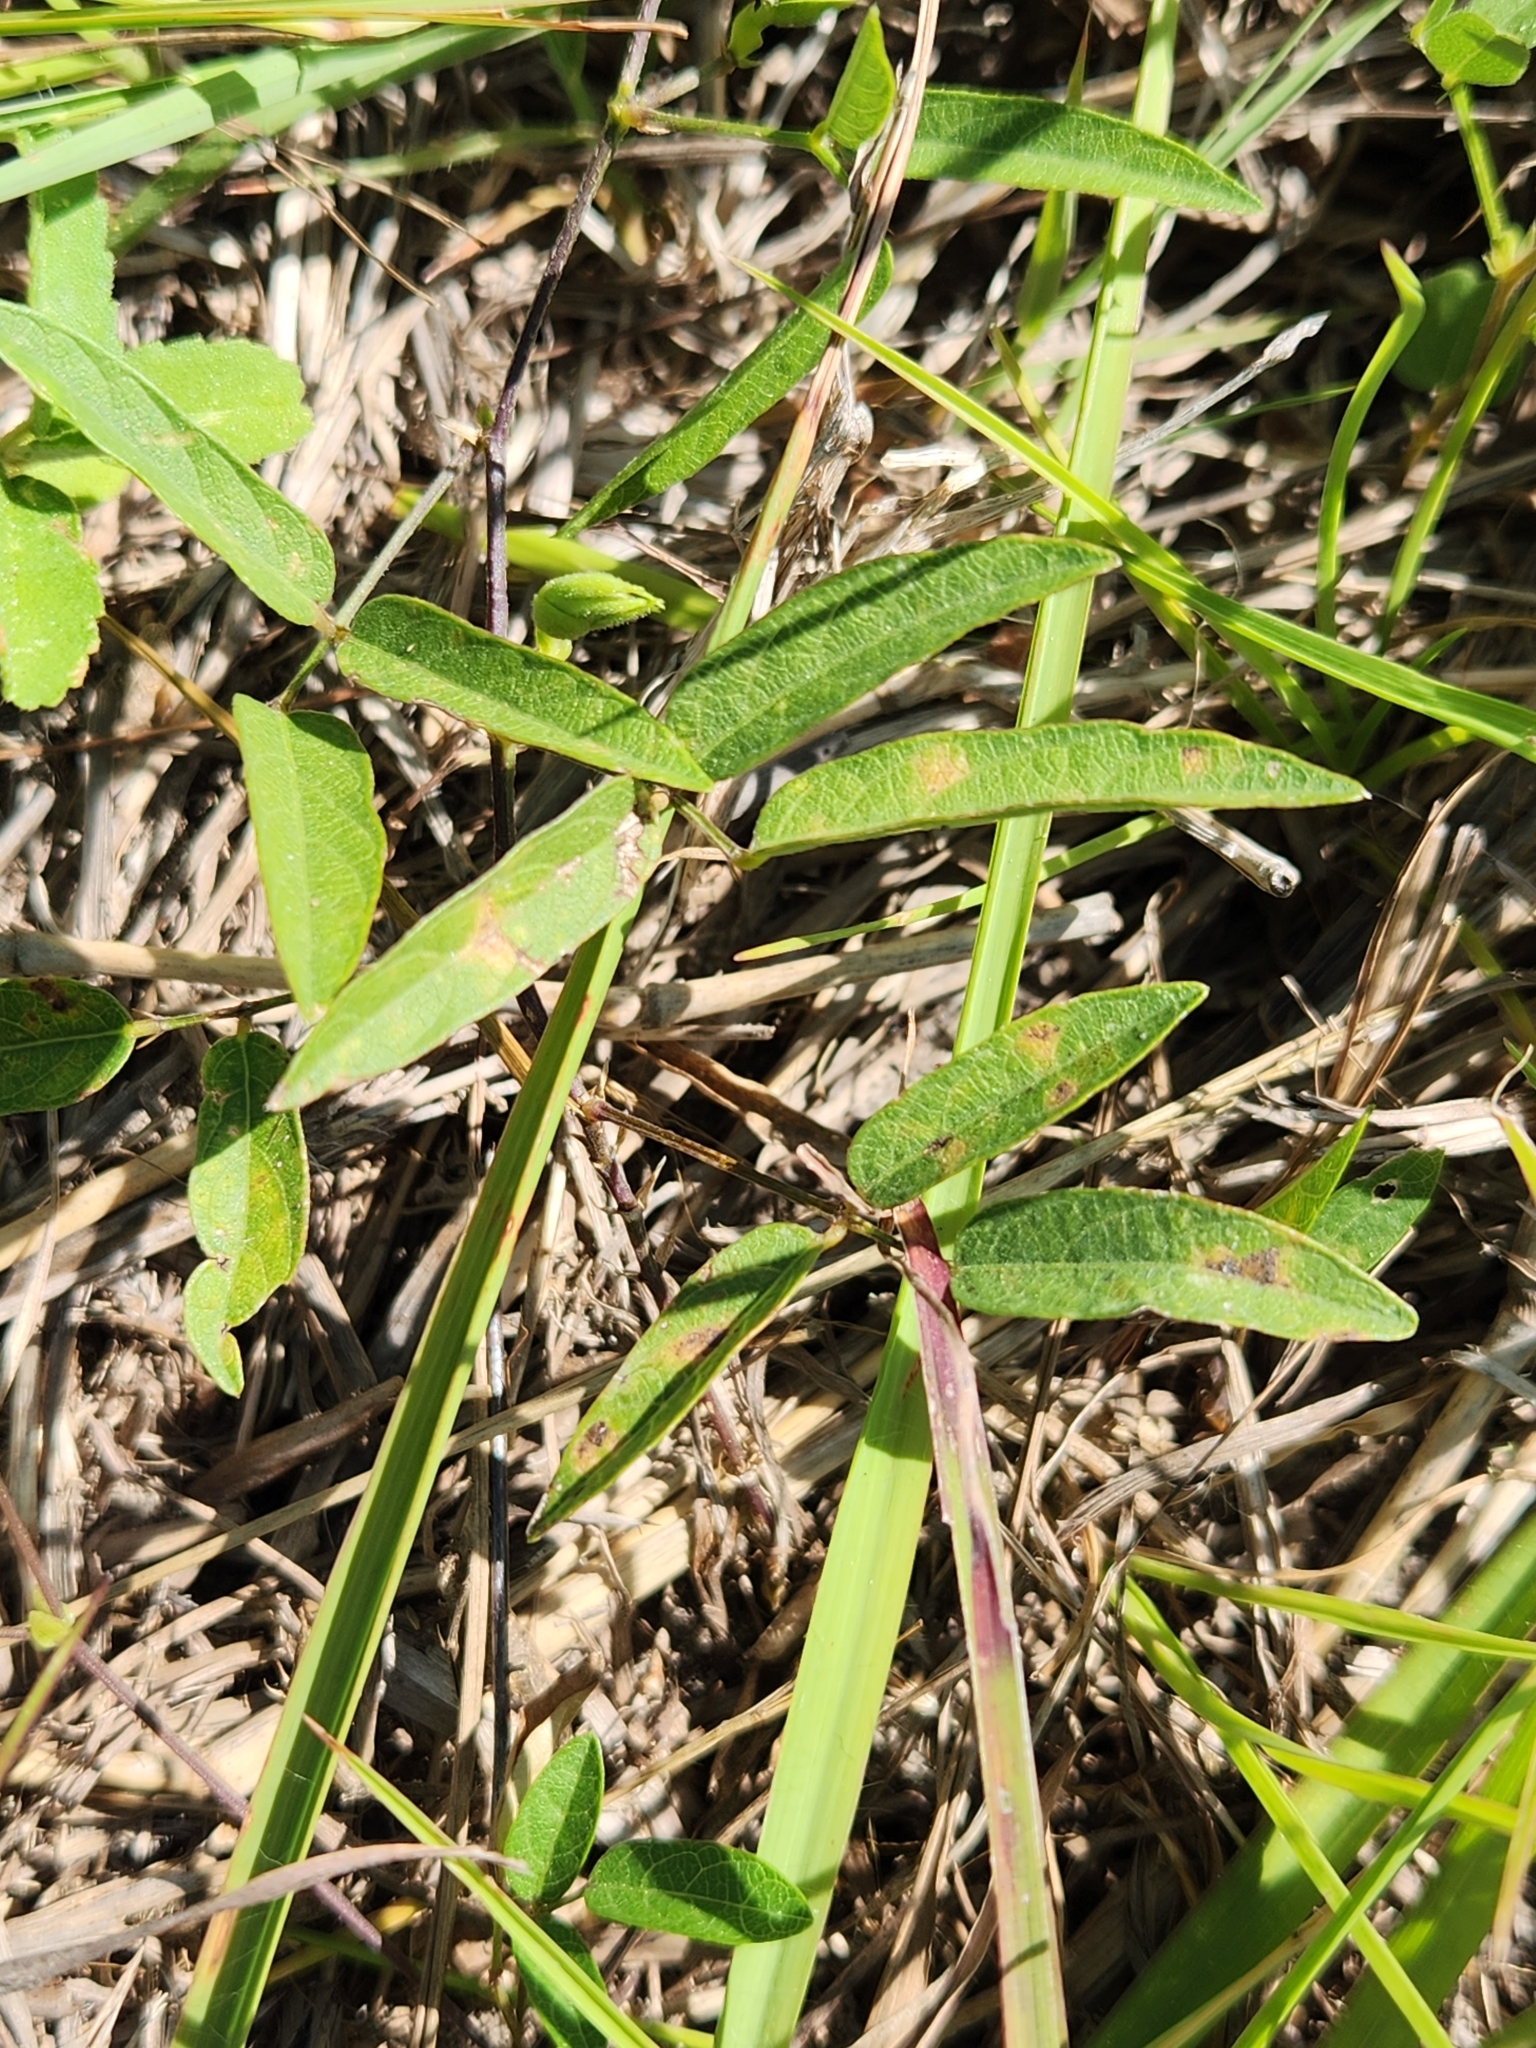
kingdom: Plantae
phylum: Tracheophyta
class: Magnoliopsida
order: Fabales
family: Fabaceae
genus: Centrosema
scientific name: Centrosema virginianum
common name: Butterfly-pea
